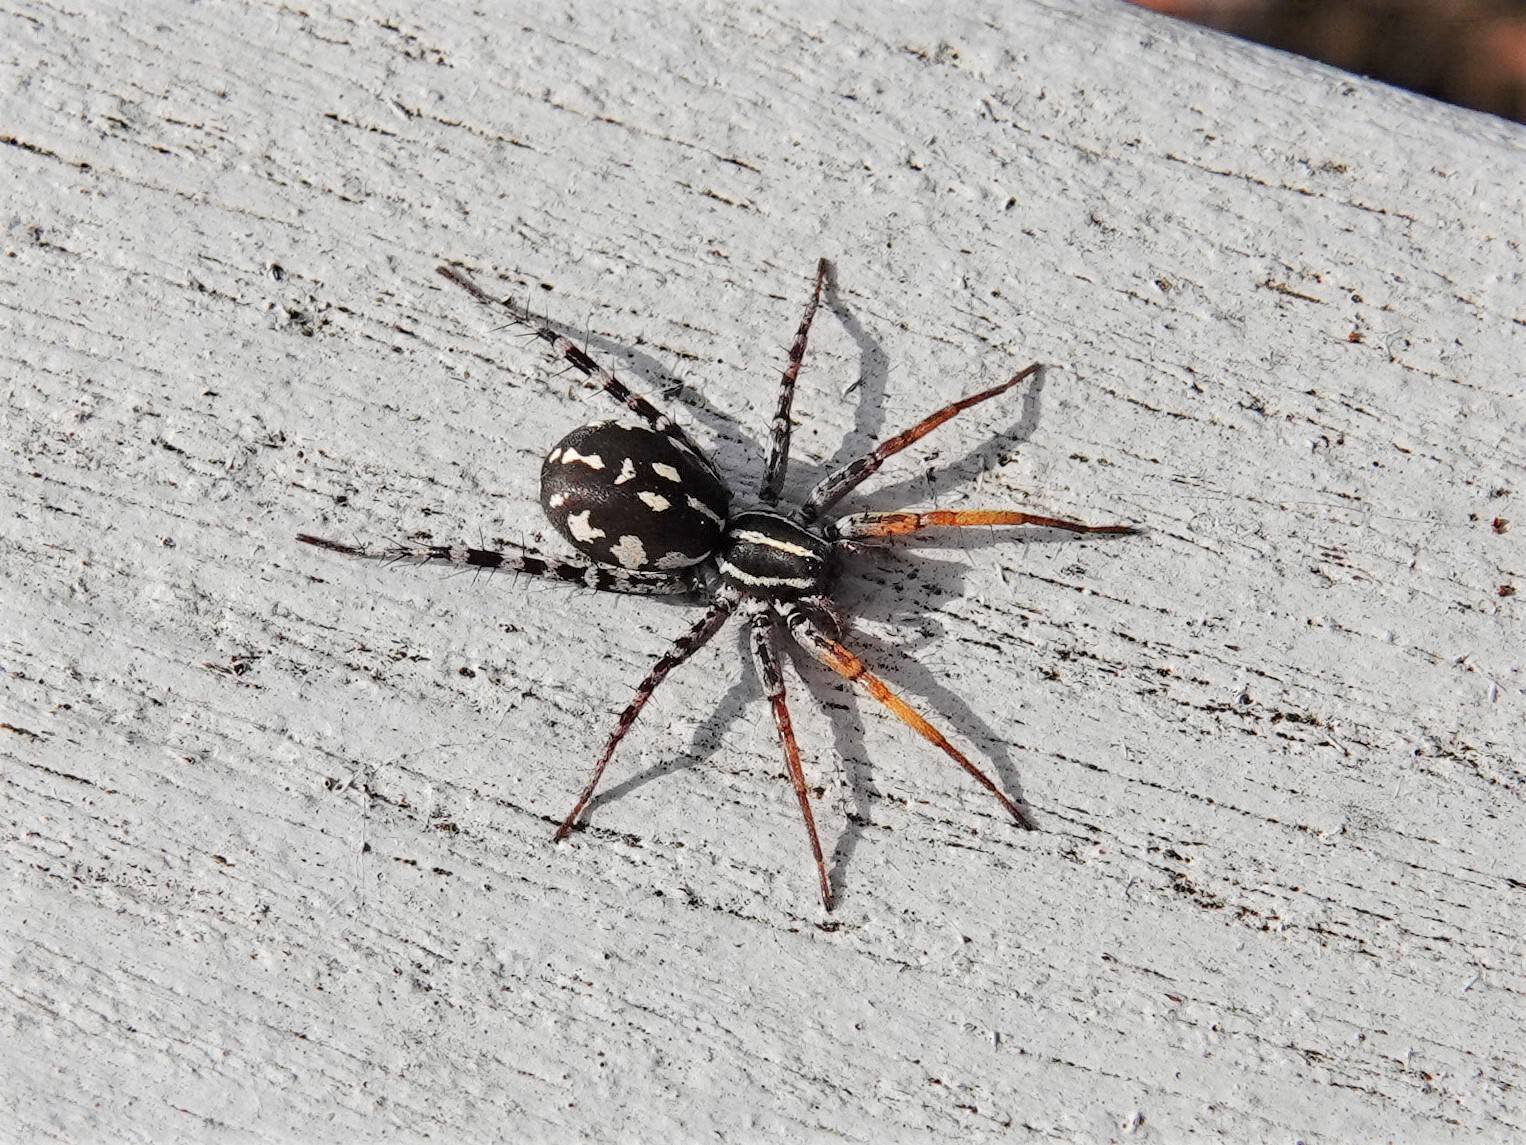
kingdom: Animalia
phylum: Arthropoda
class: Arachnida
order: Araneae
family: Corinnidae
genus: Nyssus
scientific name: Nyssus coloripes
